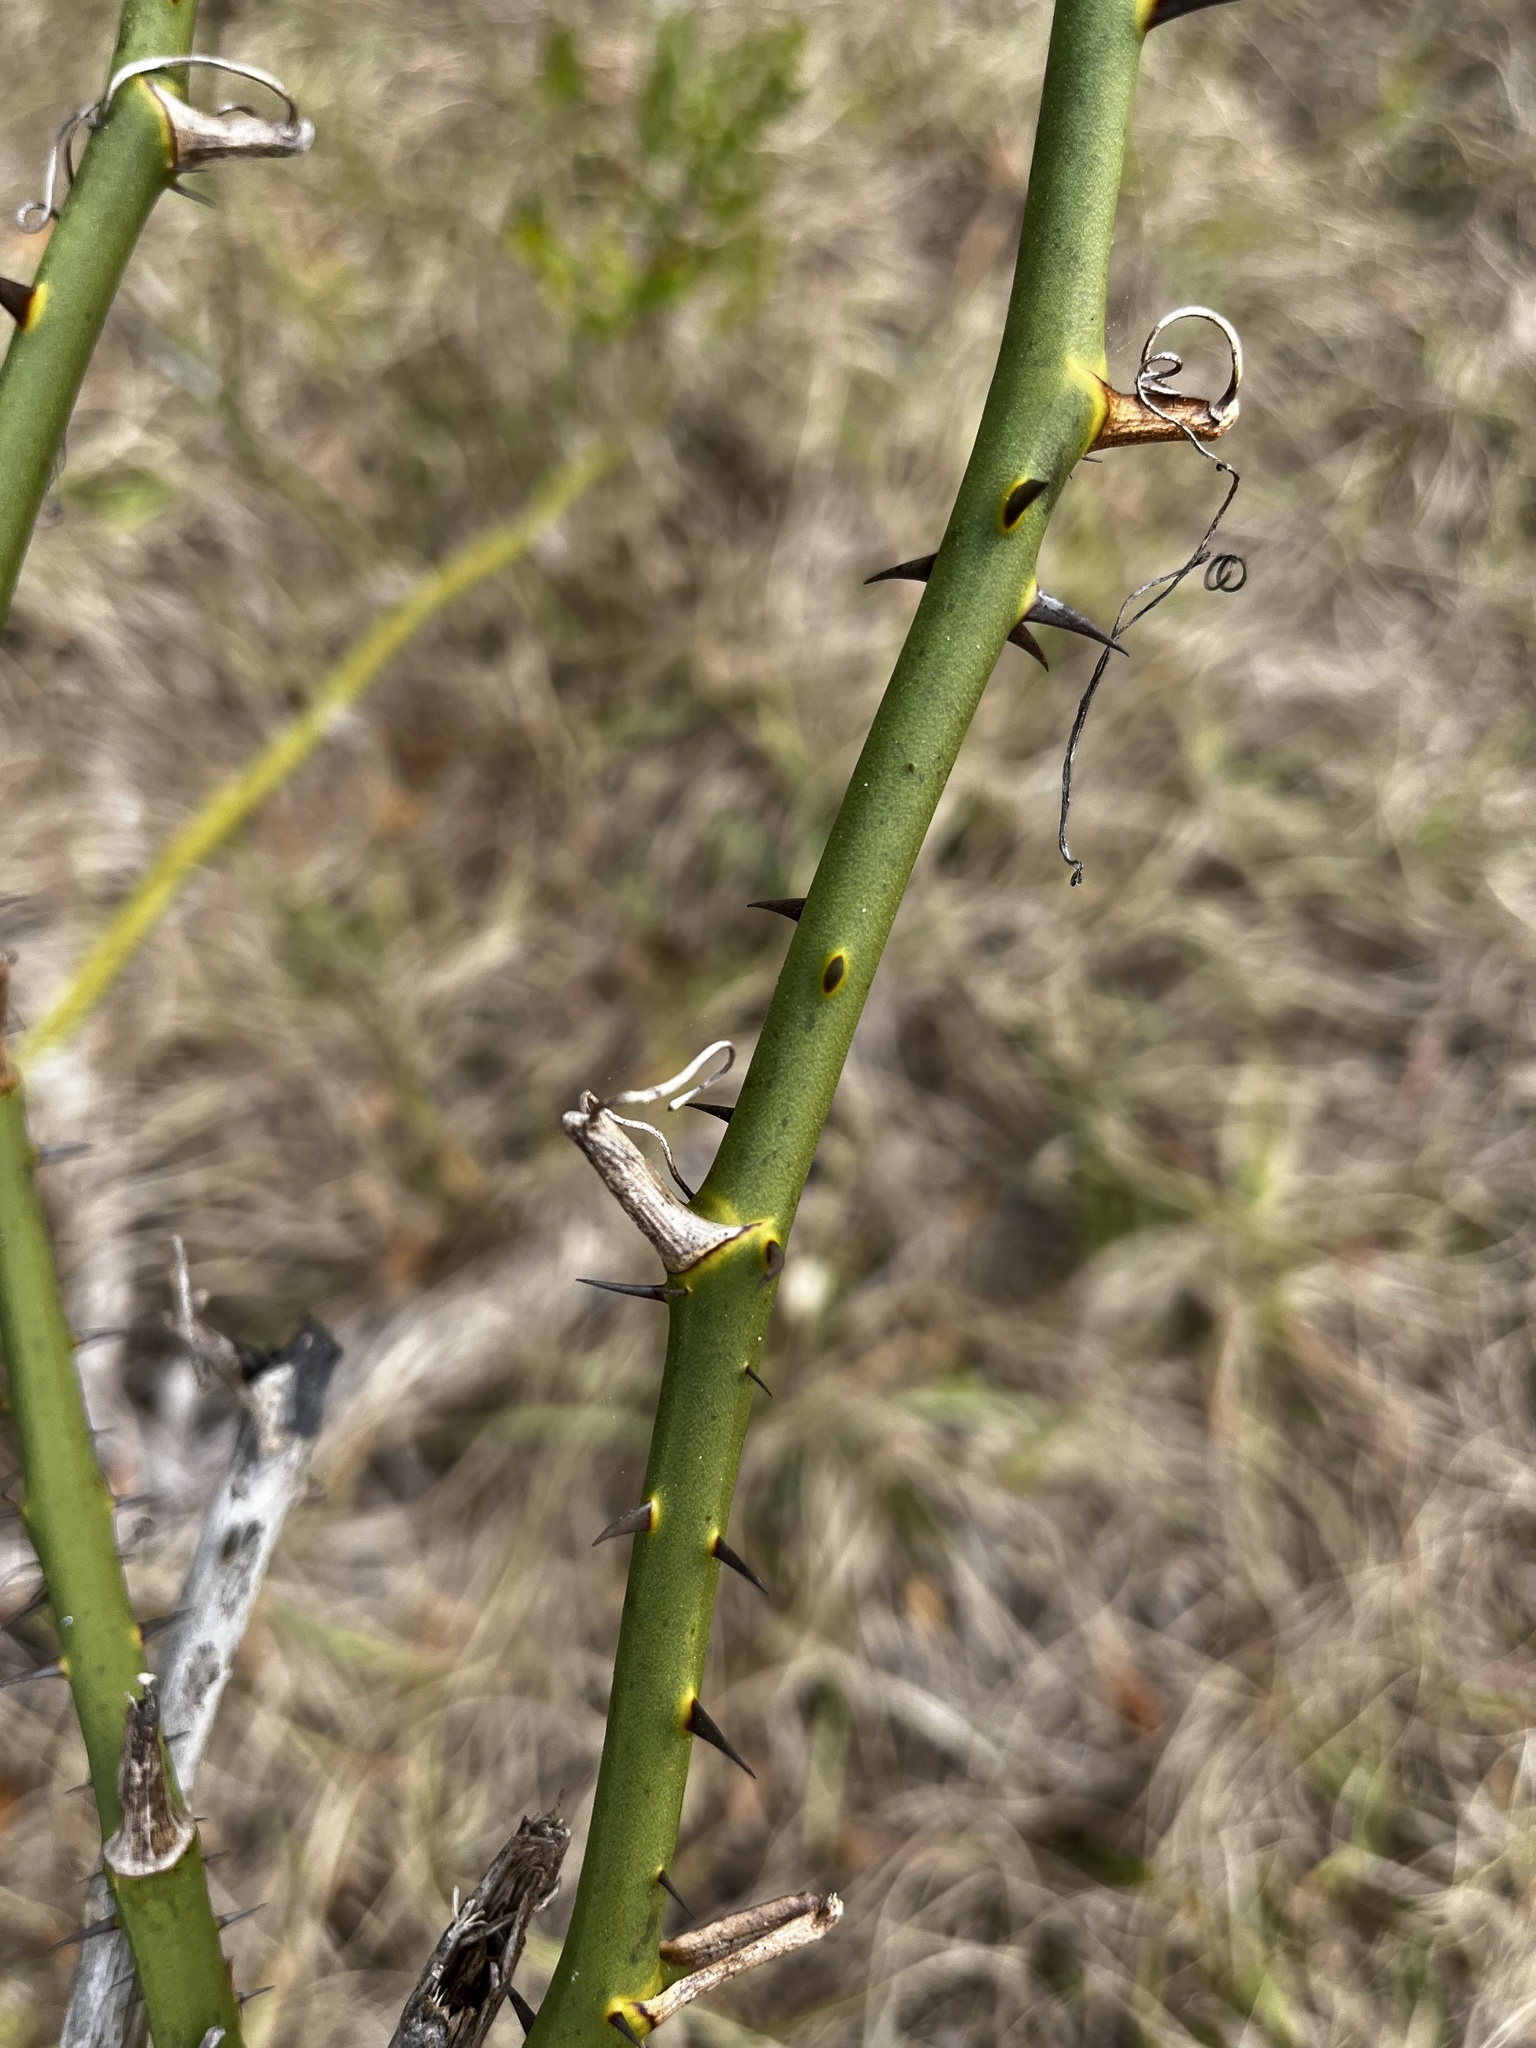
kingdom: Plantae
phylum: Tracheophyta
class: Liliopsida
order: Liliales
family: Smilacaceae
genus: Smilax
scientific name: Smilax tamnoides
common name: Hellfetter
